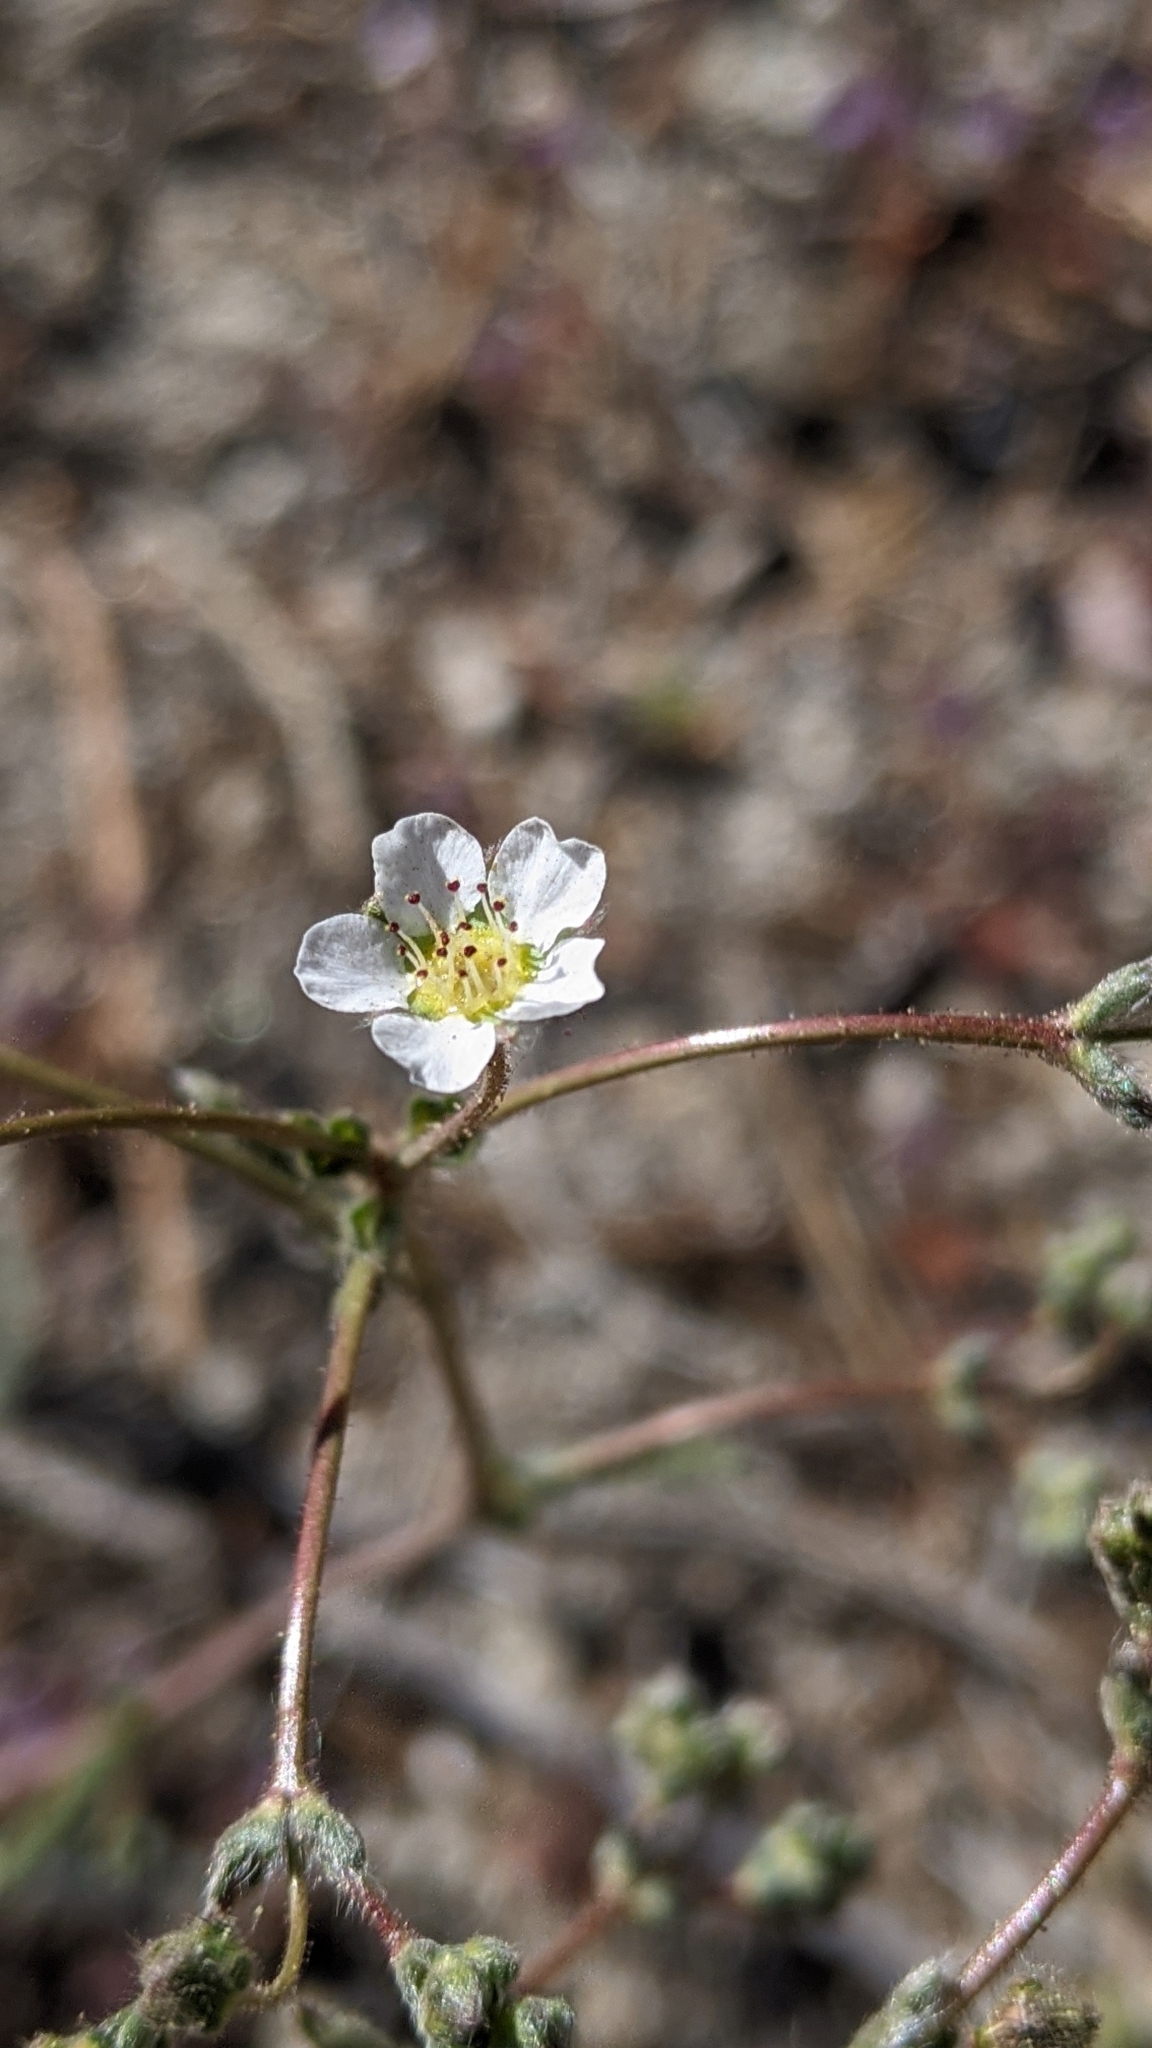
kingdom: Plantae
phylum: Tracheophyta
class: Magnoliopsida
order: Rosales
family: Rosaceae
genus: Potentilla
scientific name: Potentilla santolinoides
